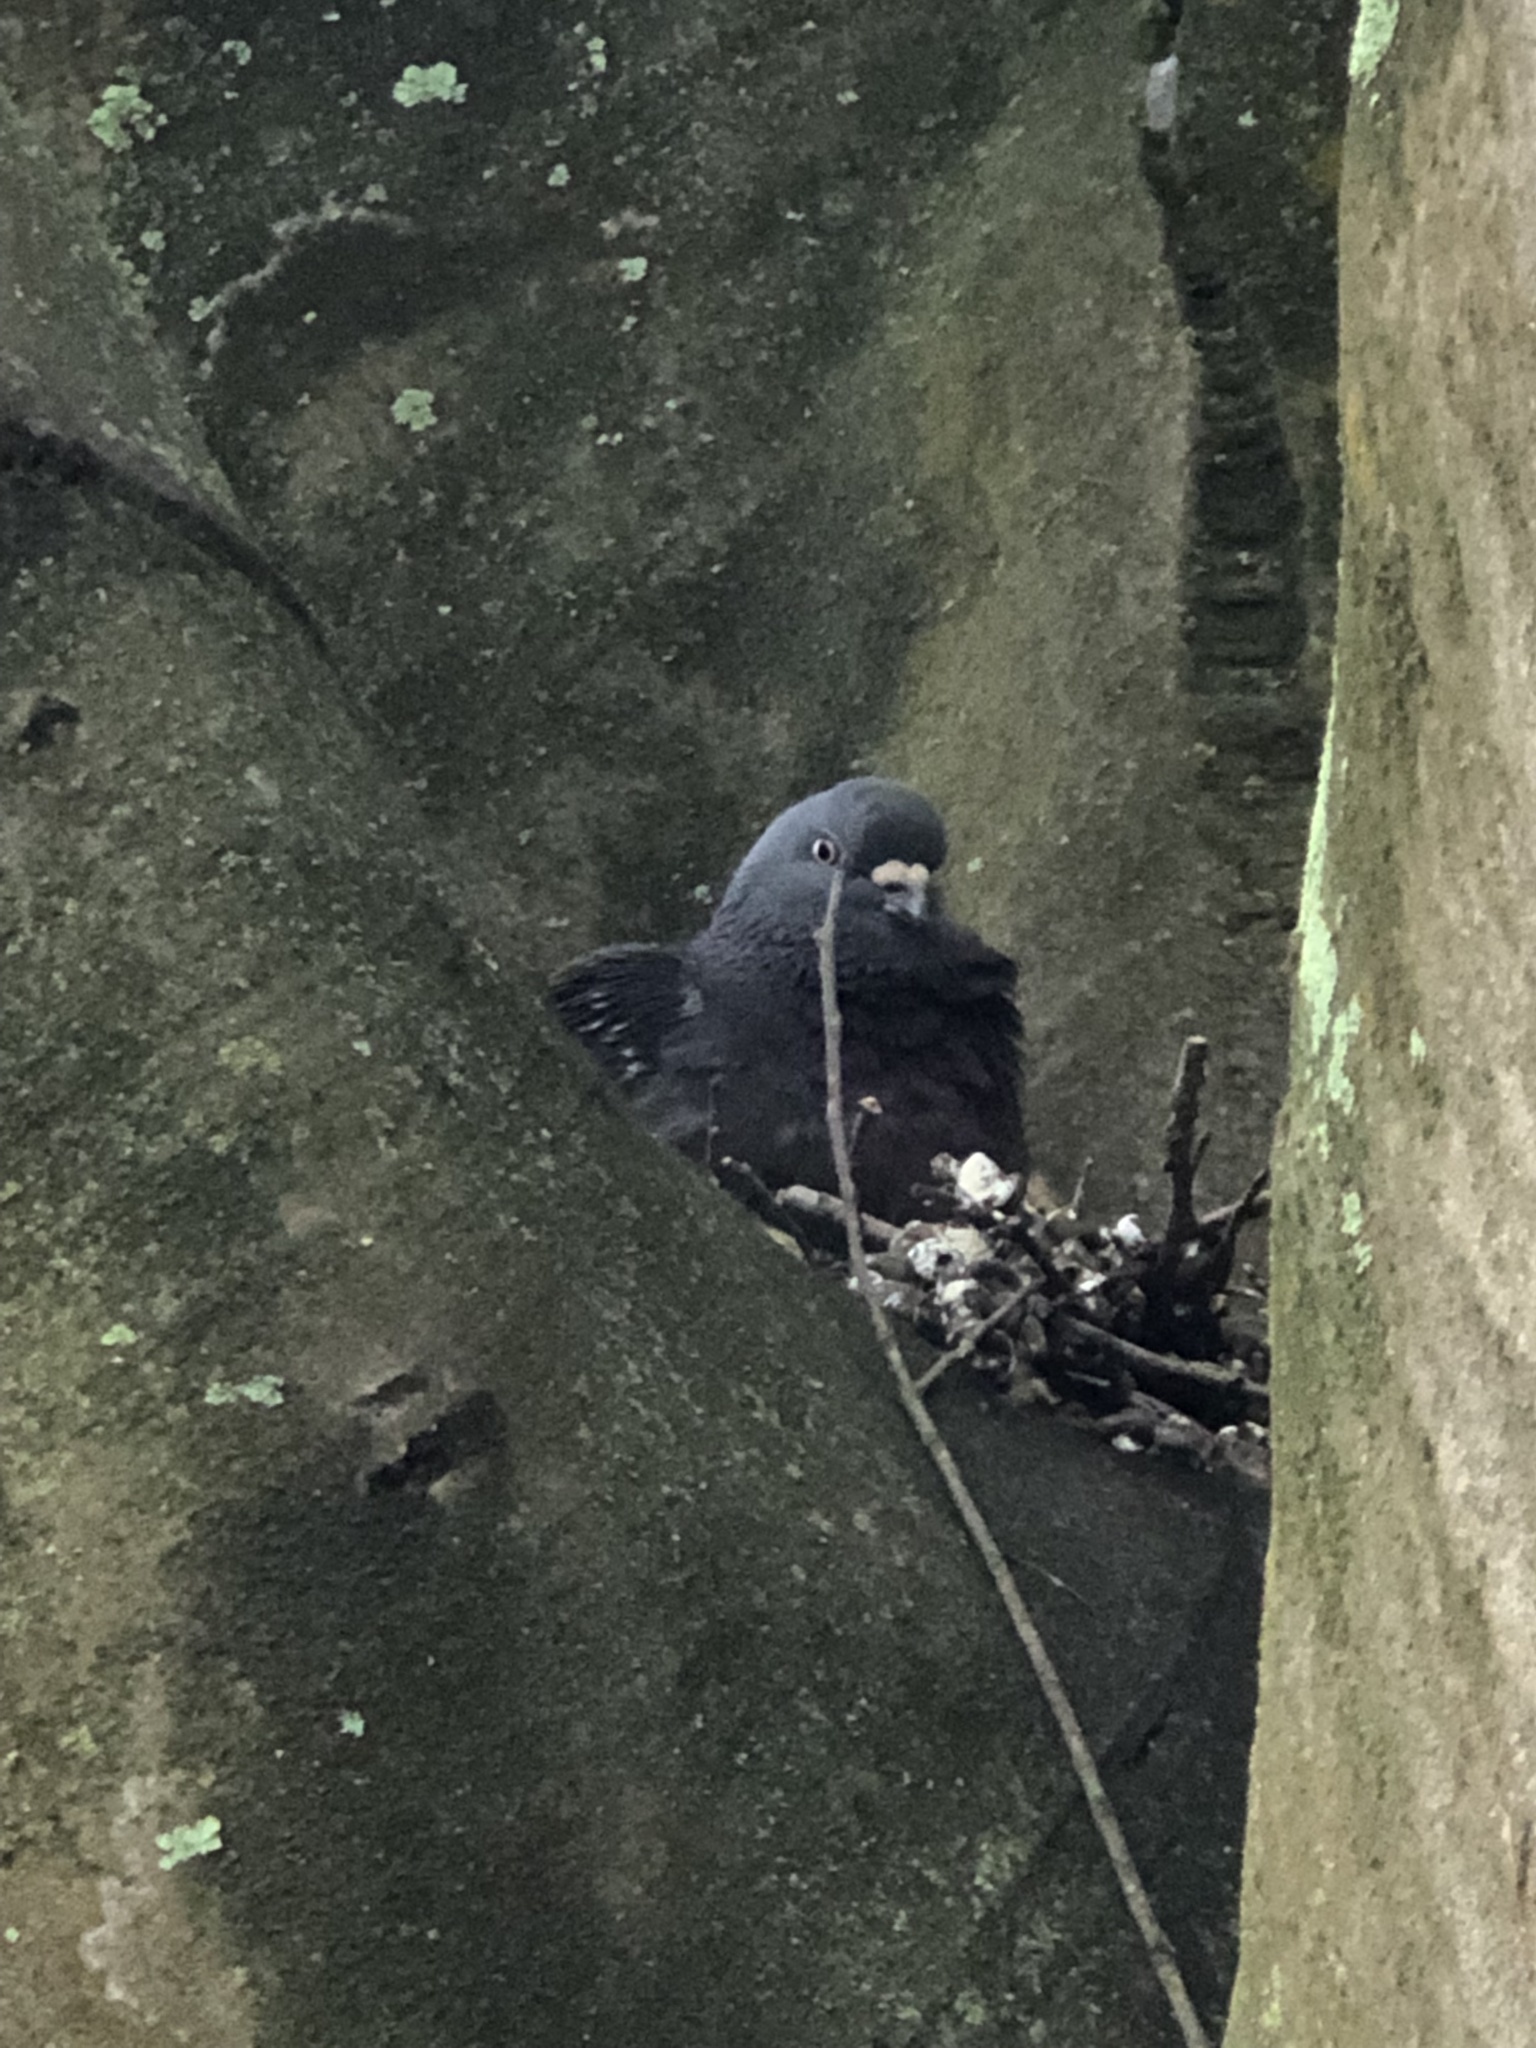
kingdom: Animalia
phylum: Chordata
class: Aves
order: Columbiformes
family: Columbidae
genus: Columba
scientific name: Columba livia
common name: Rock pigeon
